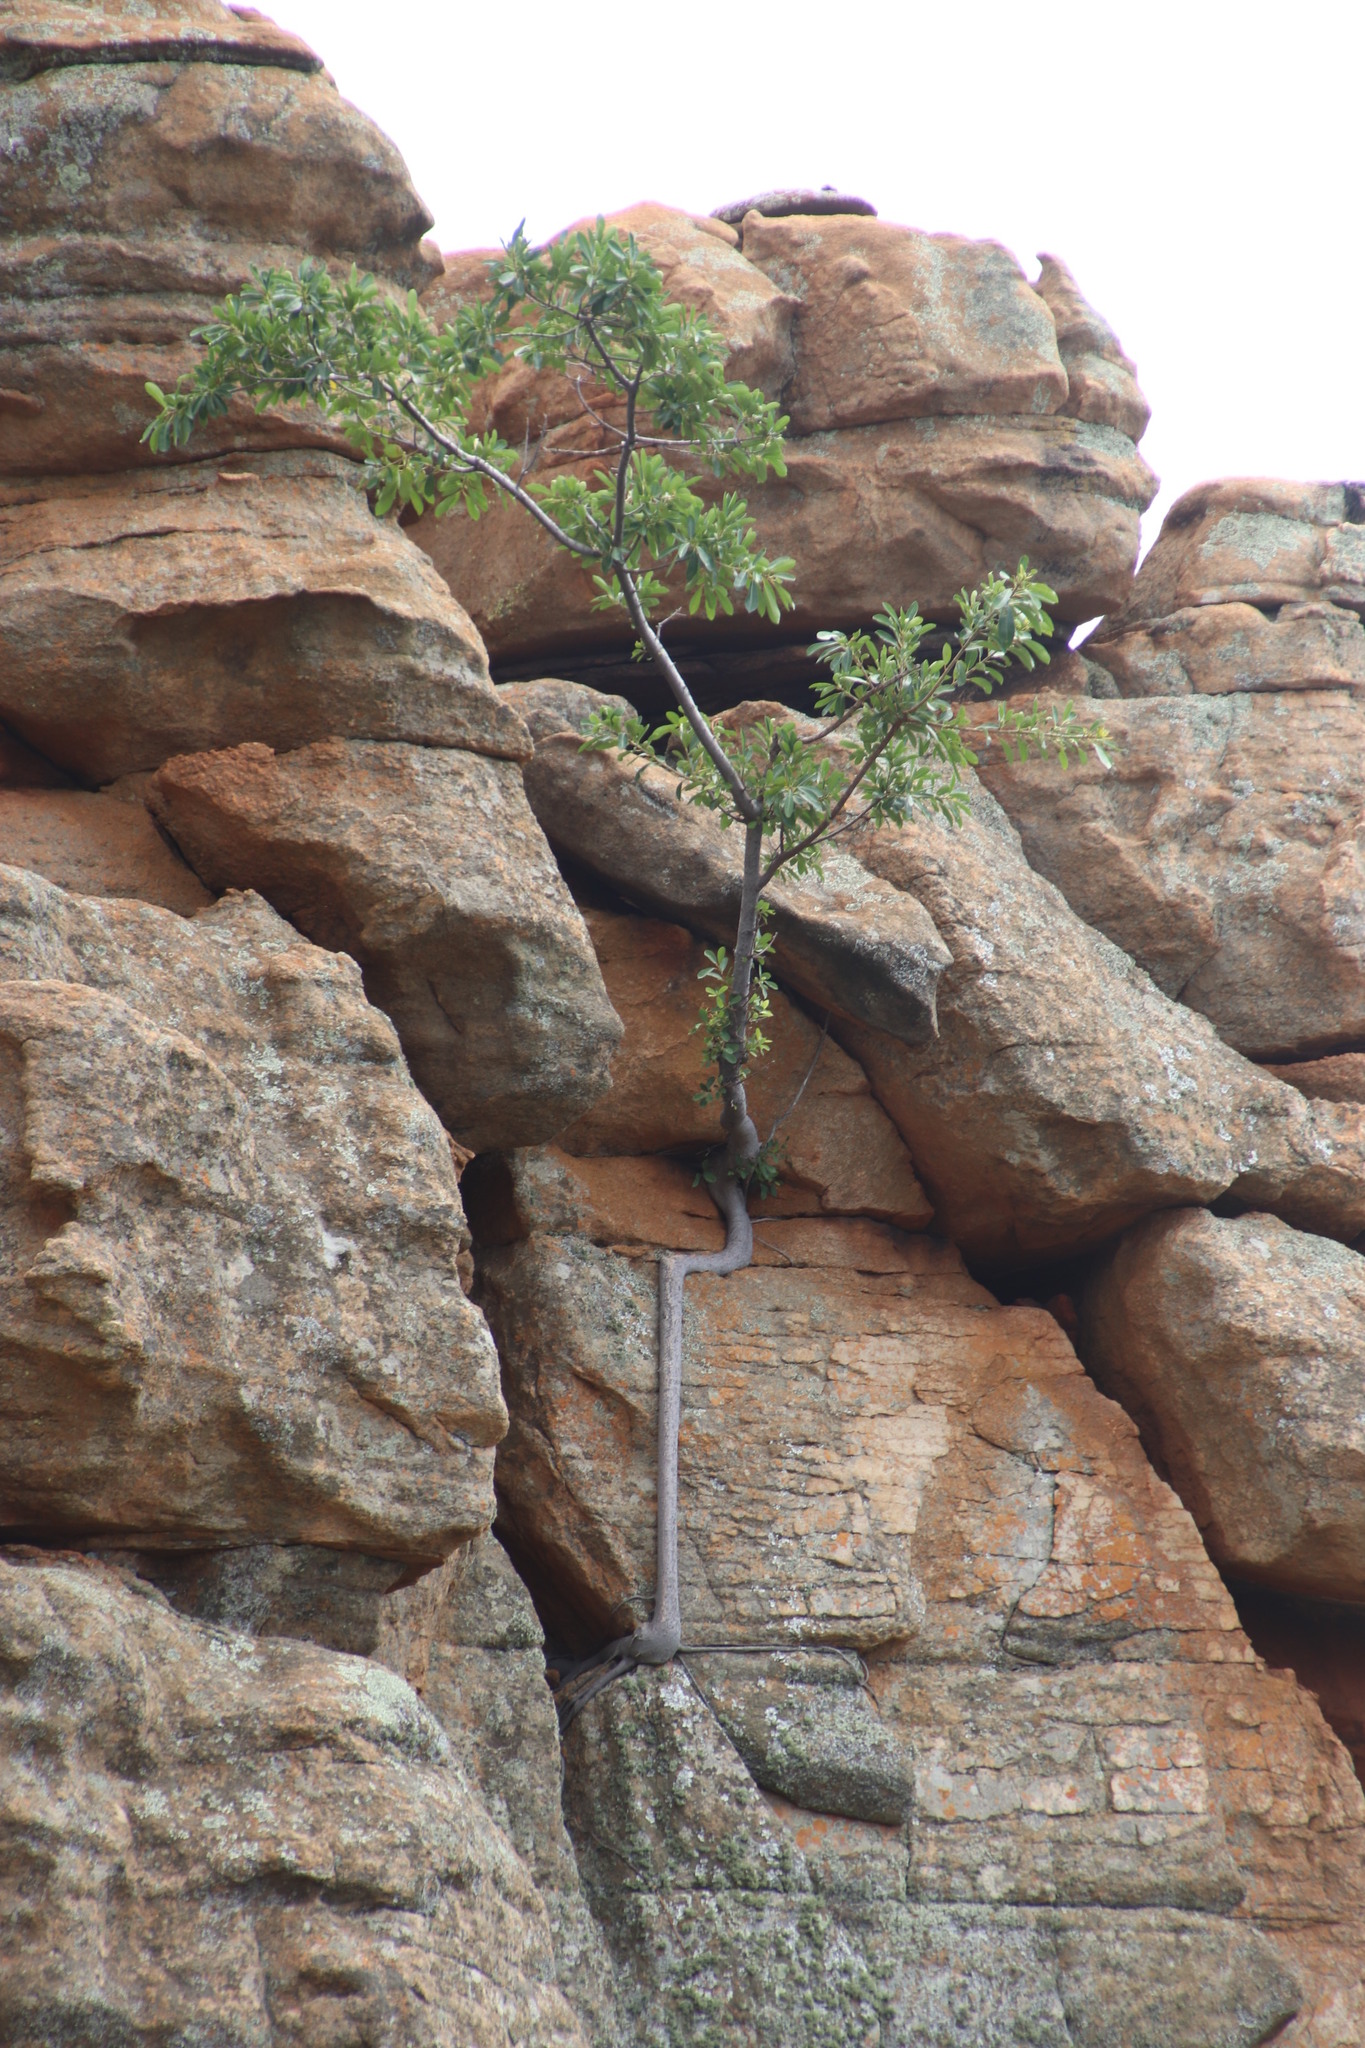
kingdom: Plantae
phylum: Tracheophyta
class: Magnoliopsida
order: Rosales
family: Moraceae
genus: Ficus
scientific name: Ficus ingens
